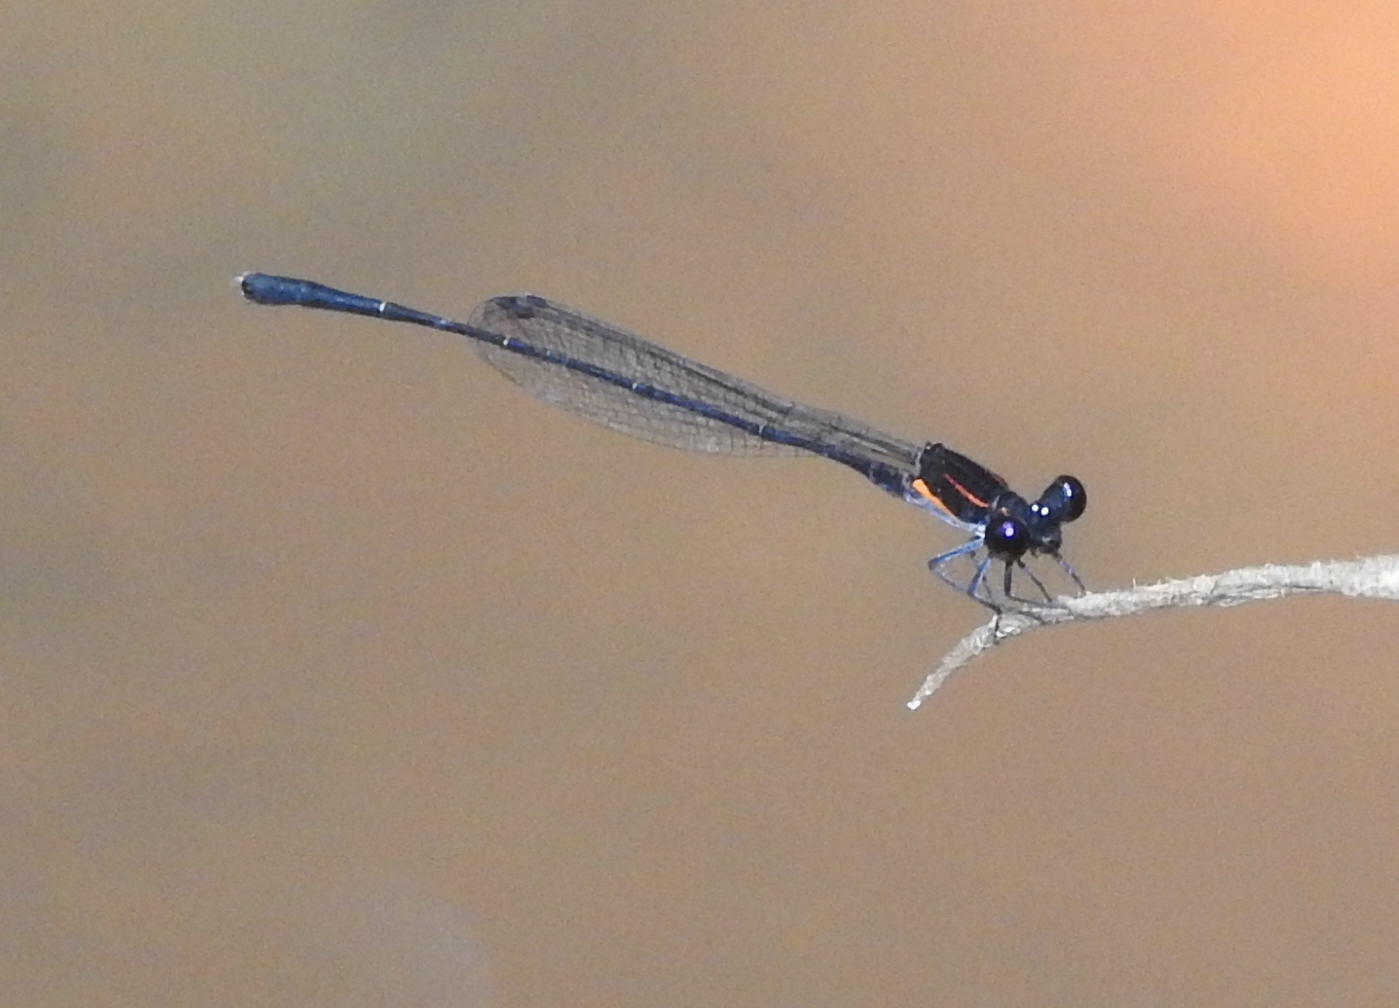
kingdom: Animalia
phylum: Arthropoda
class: Insecta
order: Odonata
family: Platycnemididae
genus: Prodasineura
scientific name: Prodasineura verticalis
